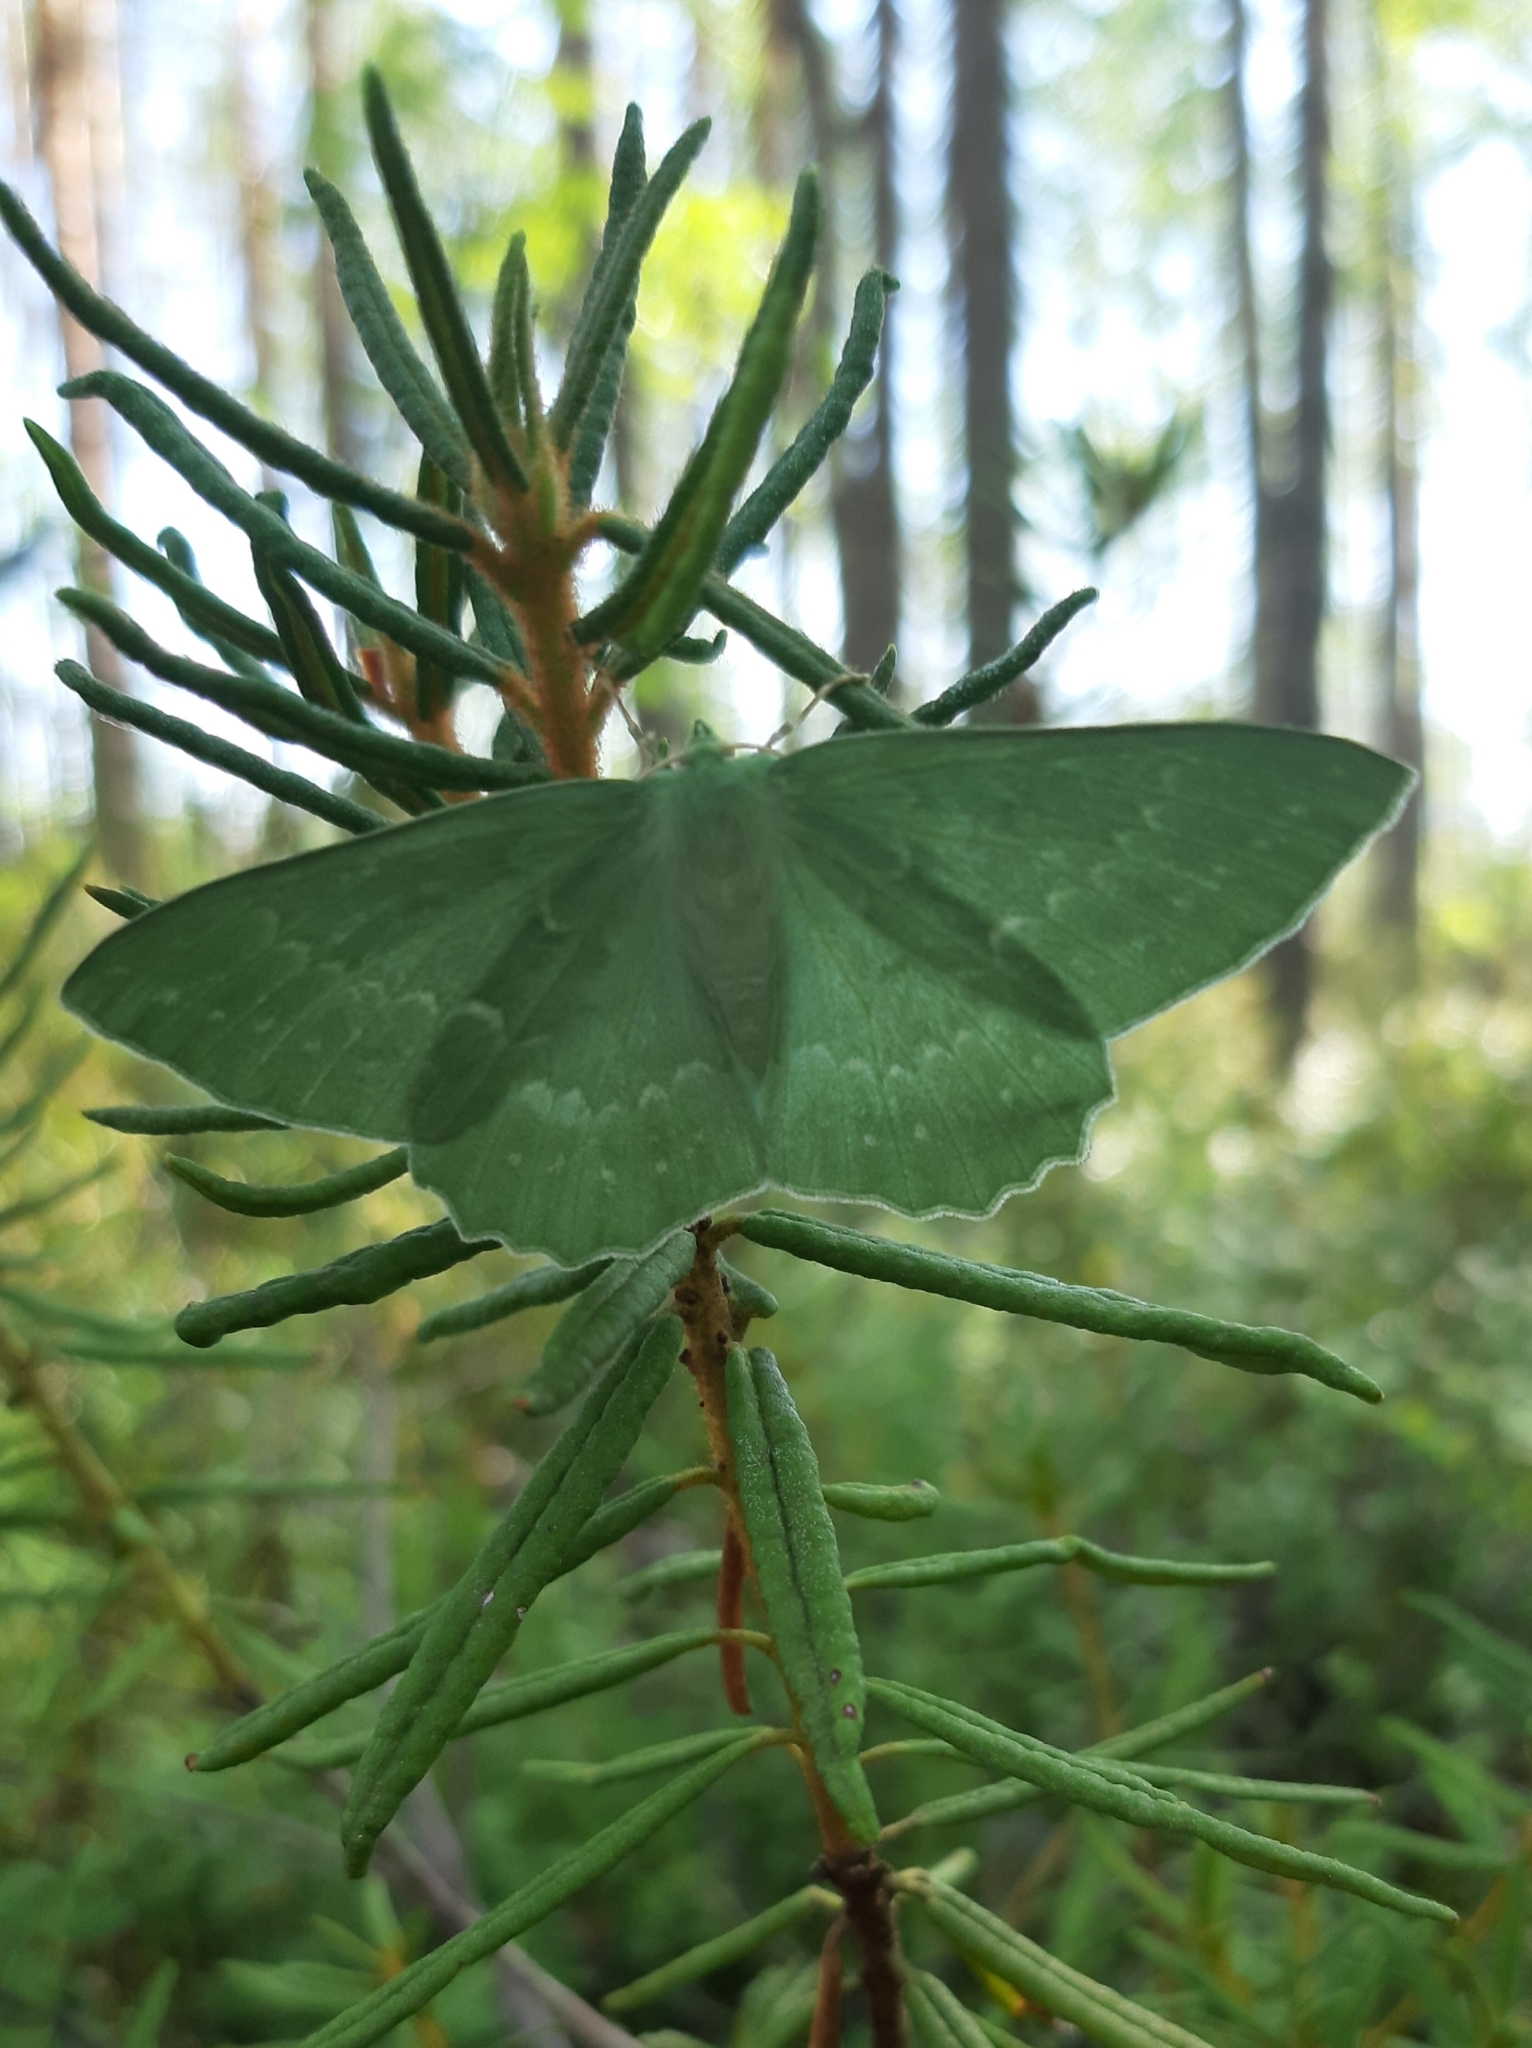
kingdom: Animalia
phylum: Arthropoda
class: Insecta
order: Lepidoptera
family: Geometridae
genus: Geometra
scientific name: Geometra papilionaria
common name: Large emerald
